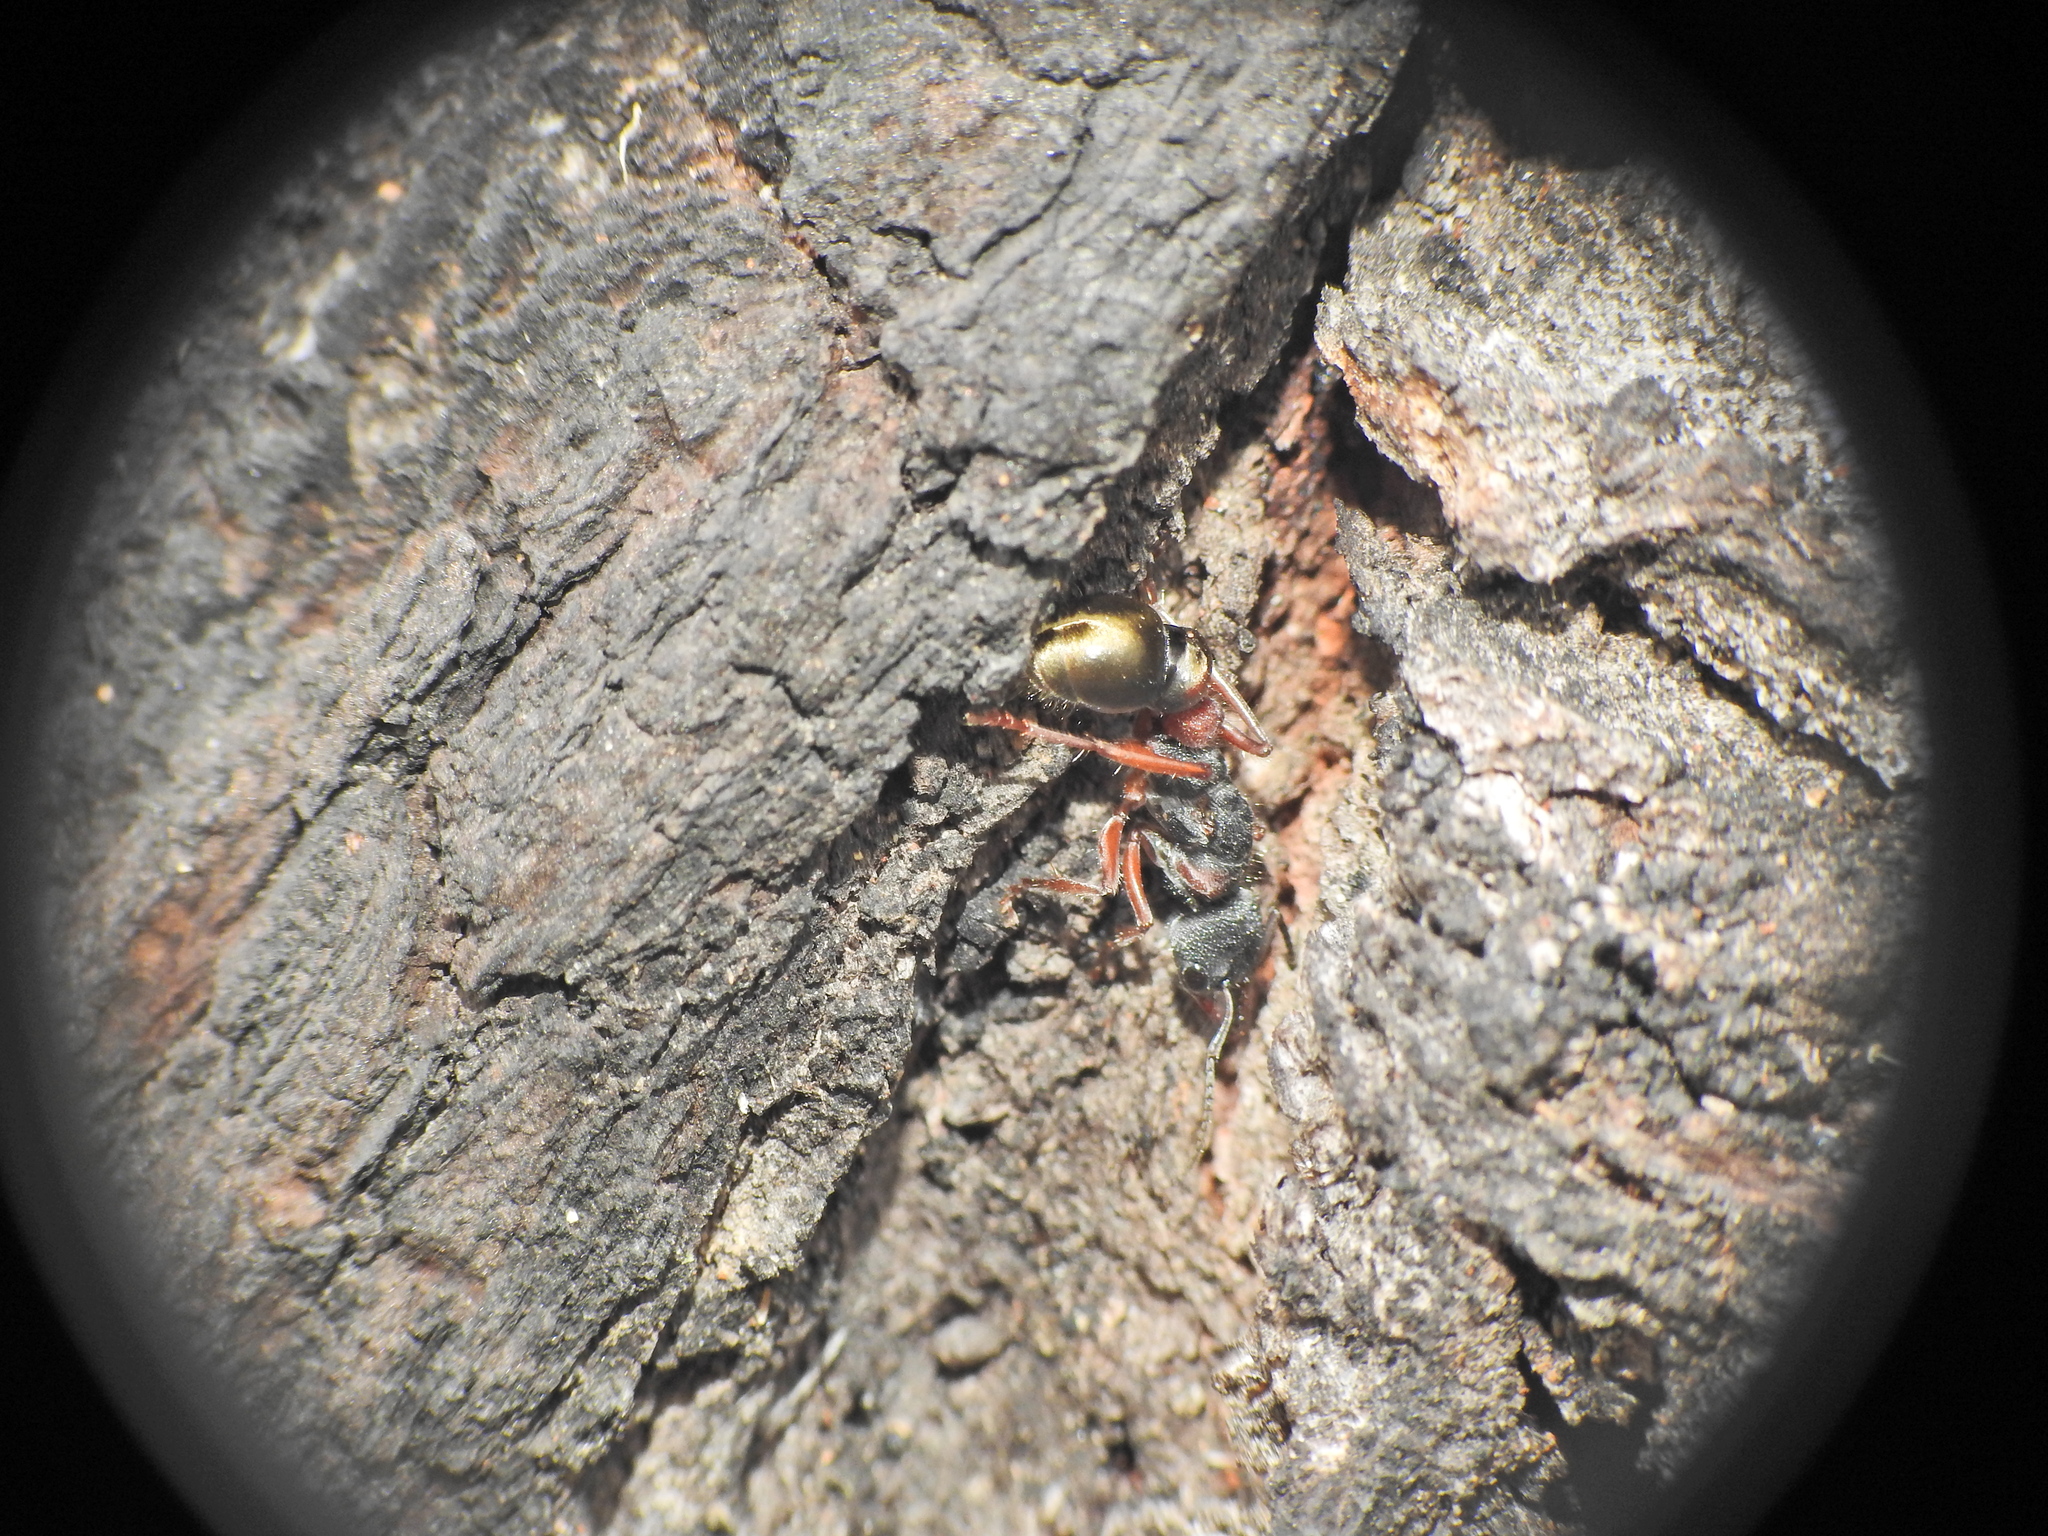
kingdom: Animalia
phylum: Arthropoda
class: Insecta
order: Hymenoptera
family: Formicidae
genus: Myrmecia
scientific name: Myrmecia chrysogaster
